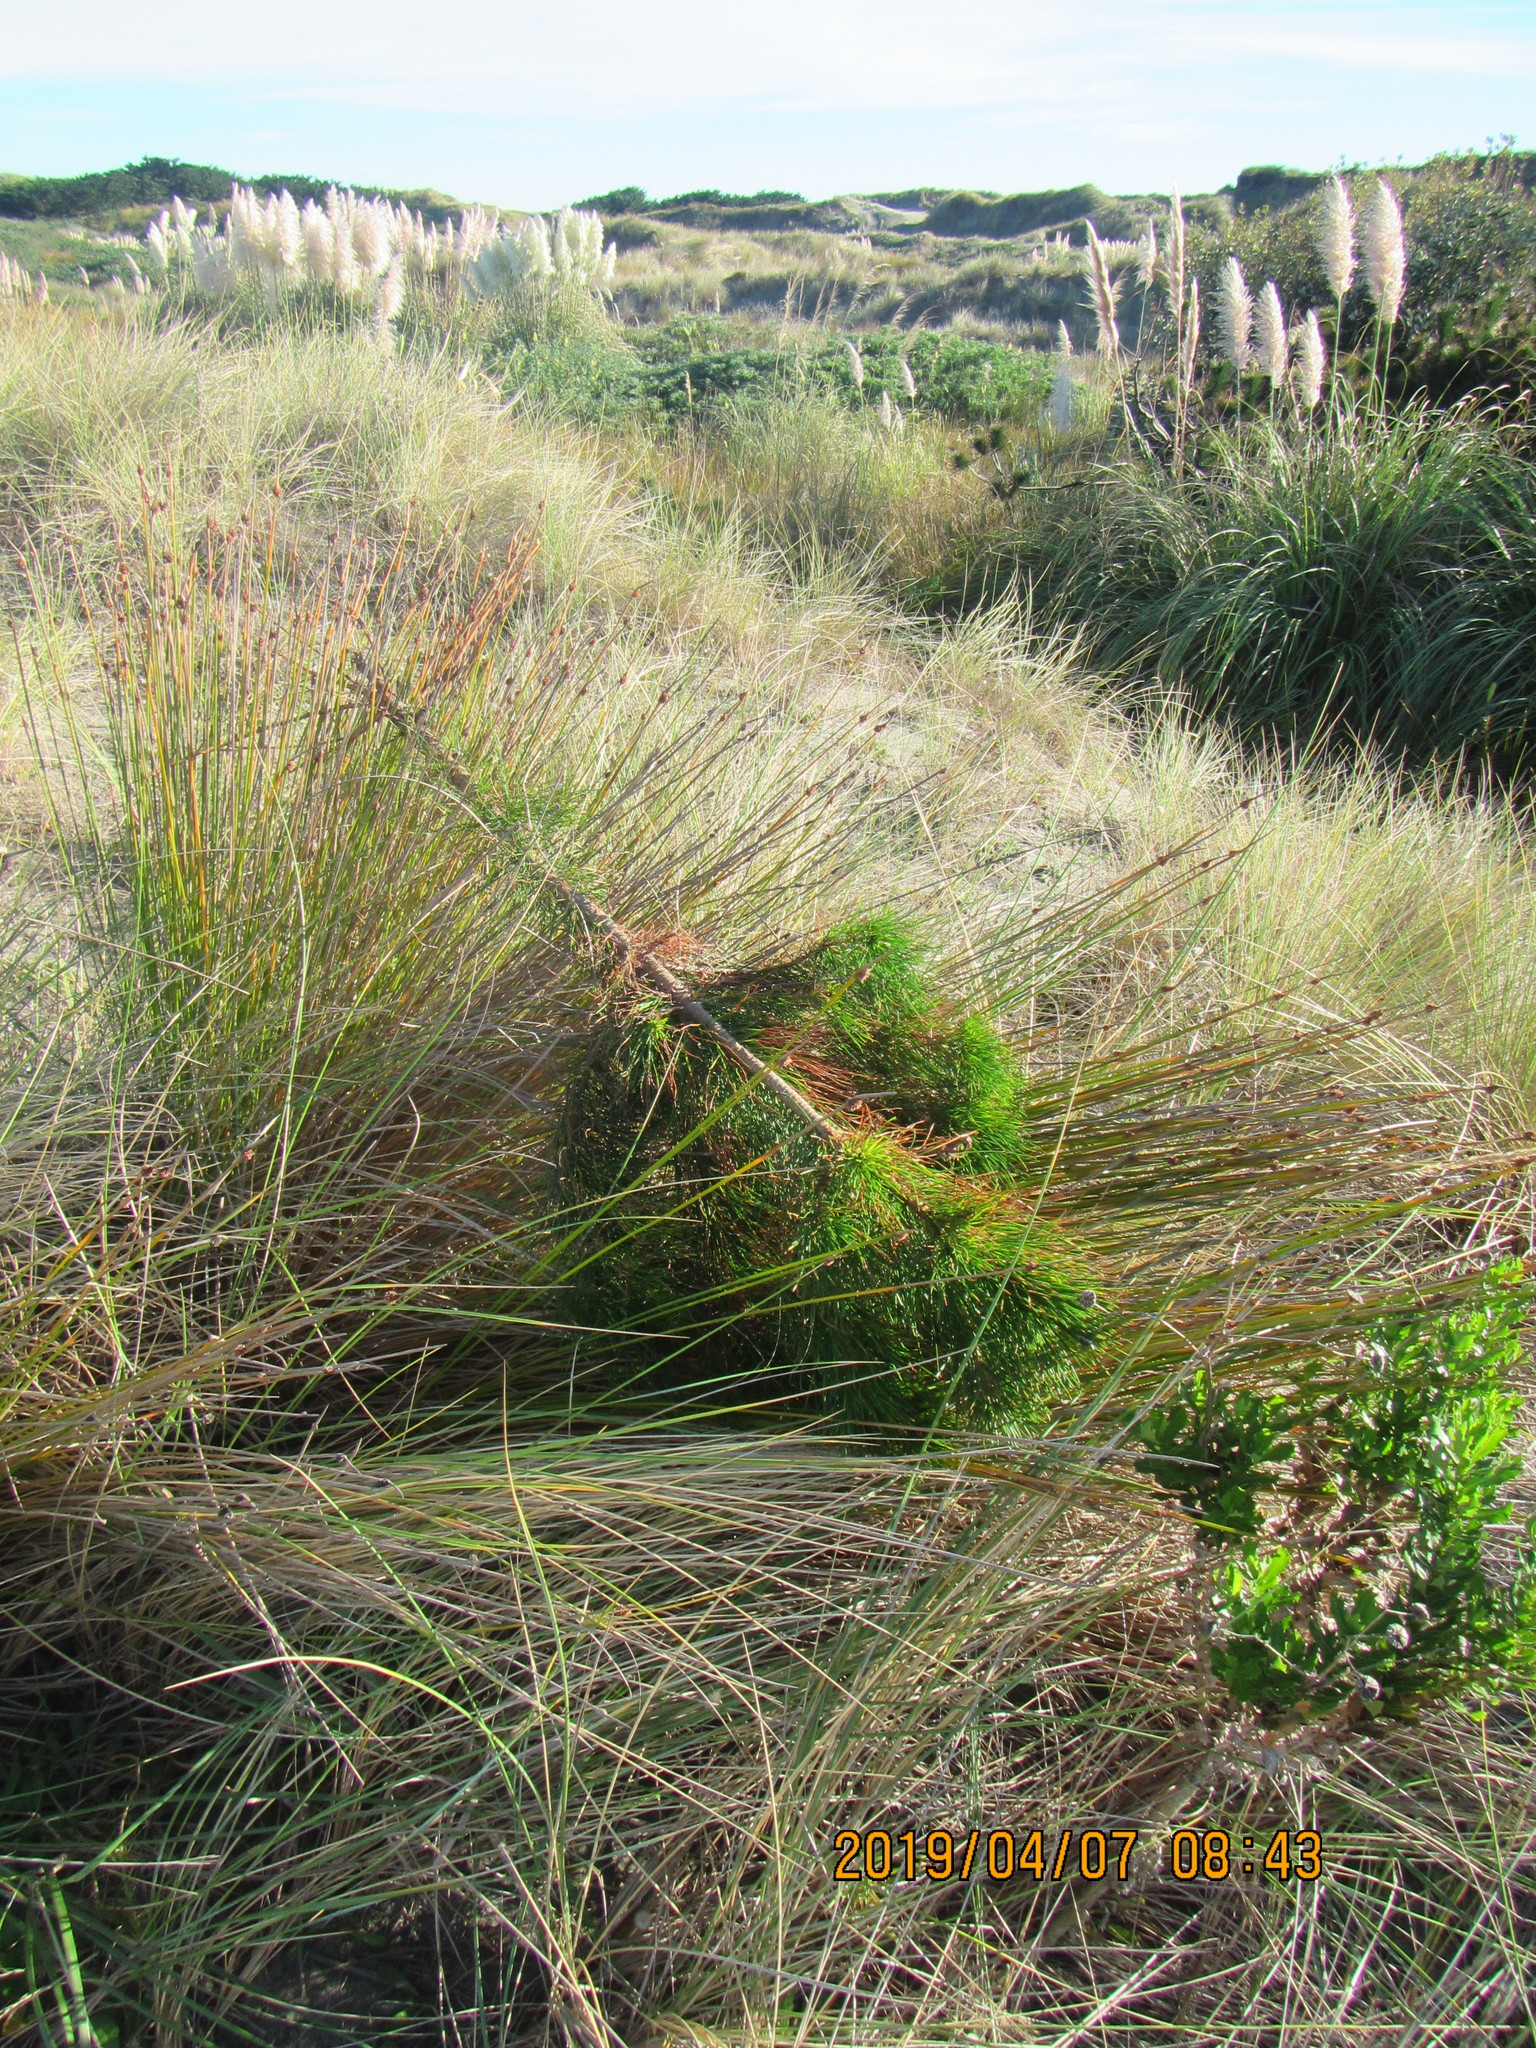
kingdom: Plantae
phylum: Tracheophyta
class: Pinopsida
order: Pinales
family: Pinaceae
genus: Pinus
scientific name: Pinus radiata
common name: Monterey pine
